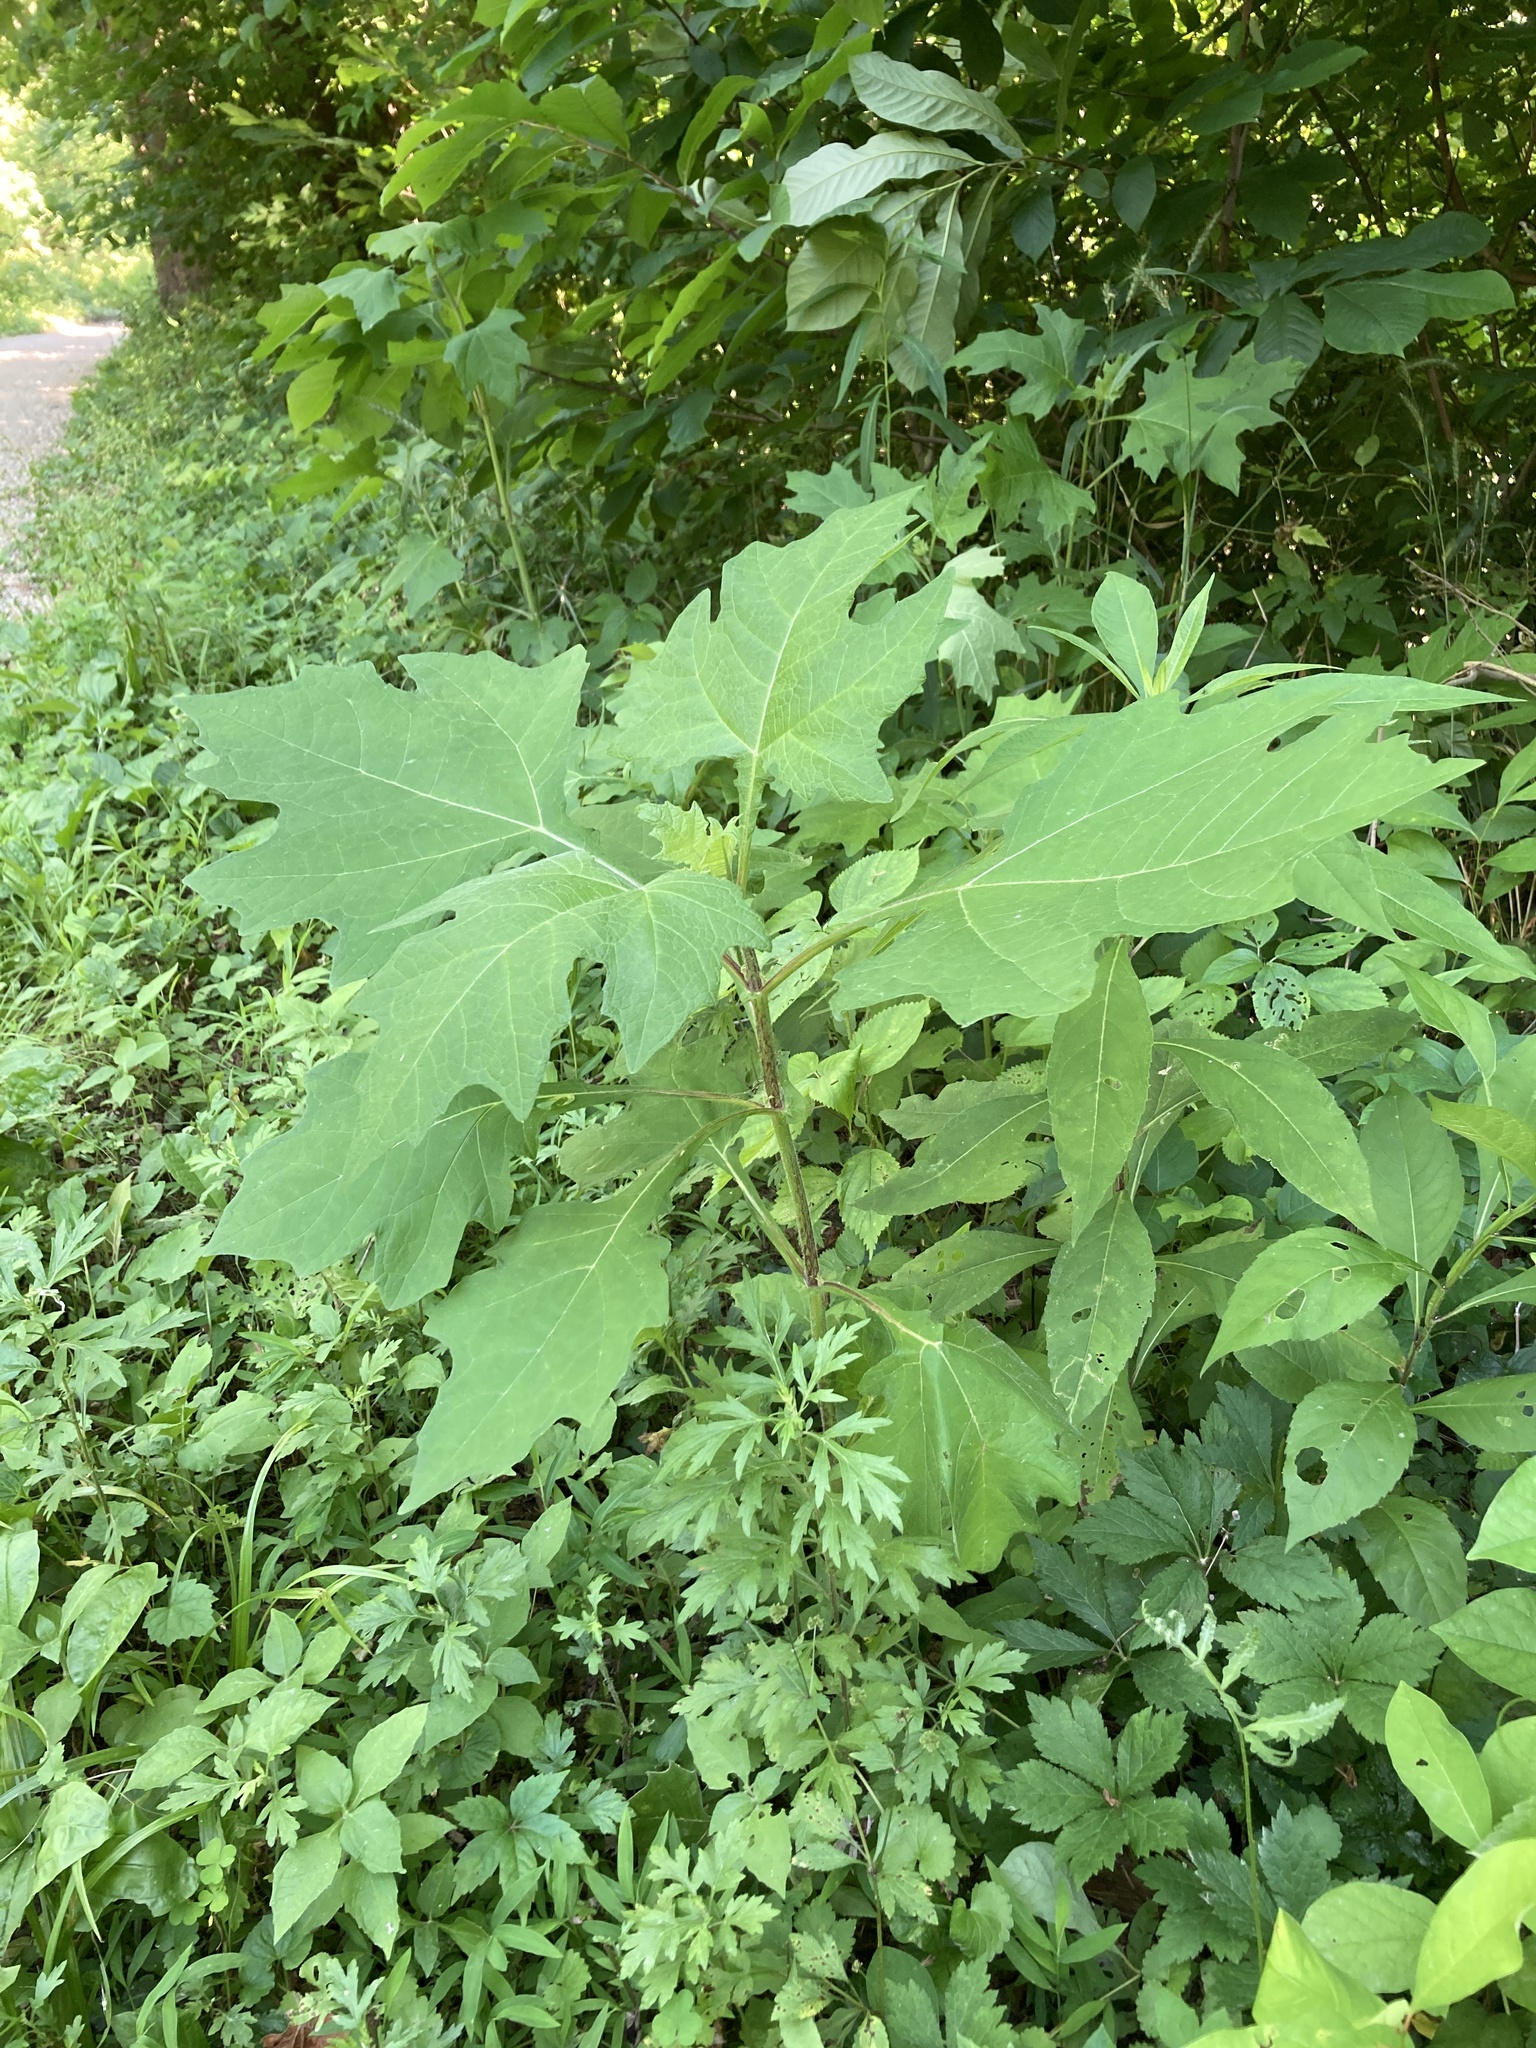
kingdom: Plantae
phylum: Tracheophyta
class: Magnoliopsida
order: Asterales
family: Asteraceae
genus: Smallanthus
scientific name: Smallanthus uvedalia
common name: Bear's-foot
